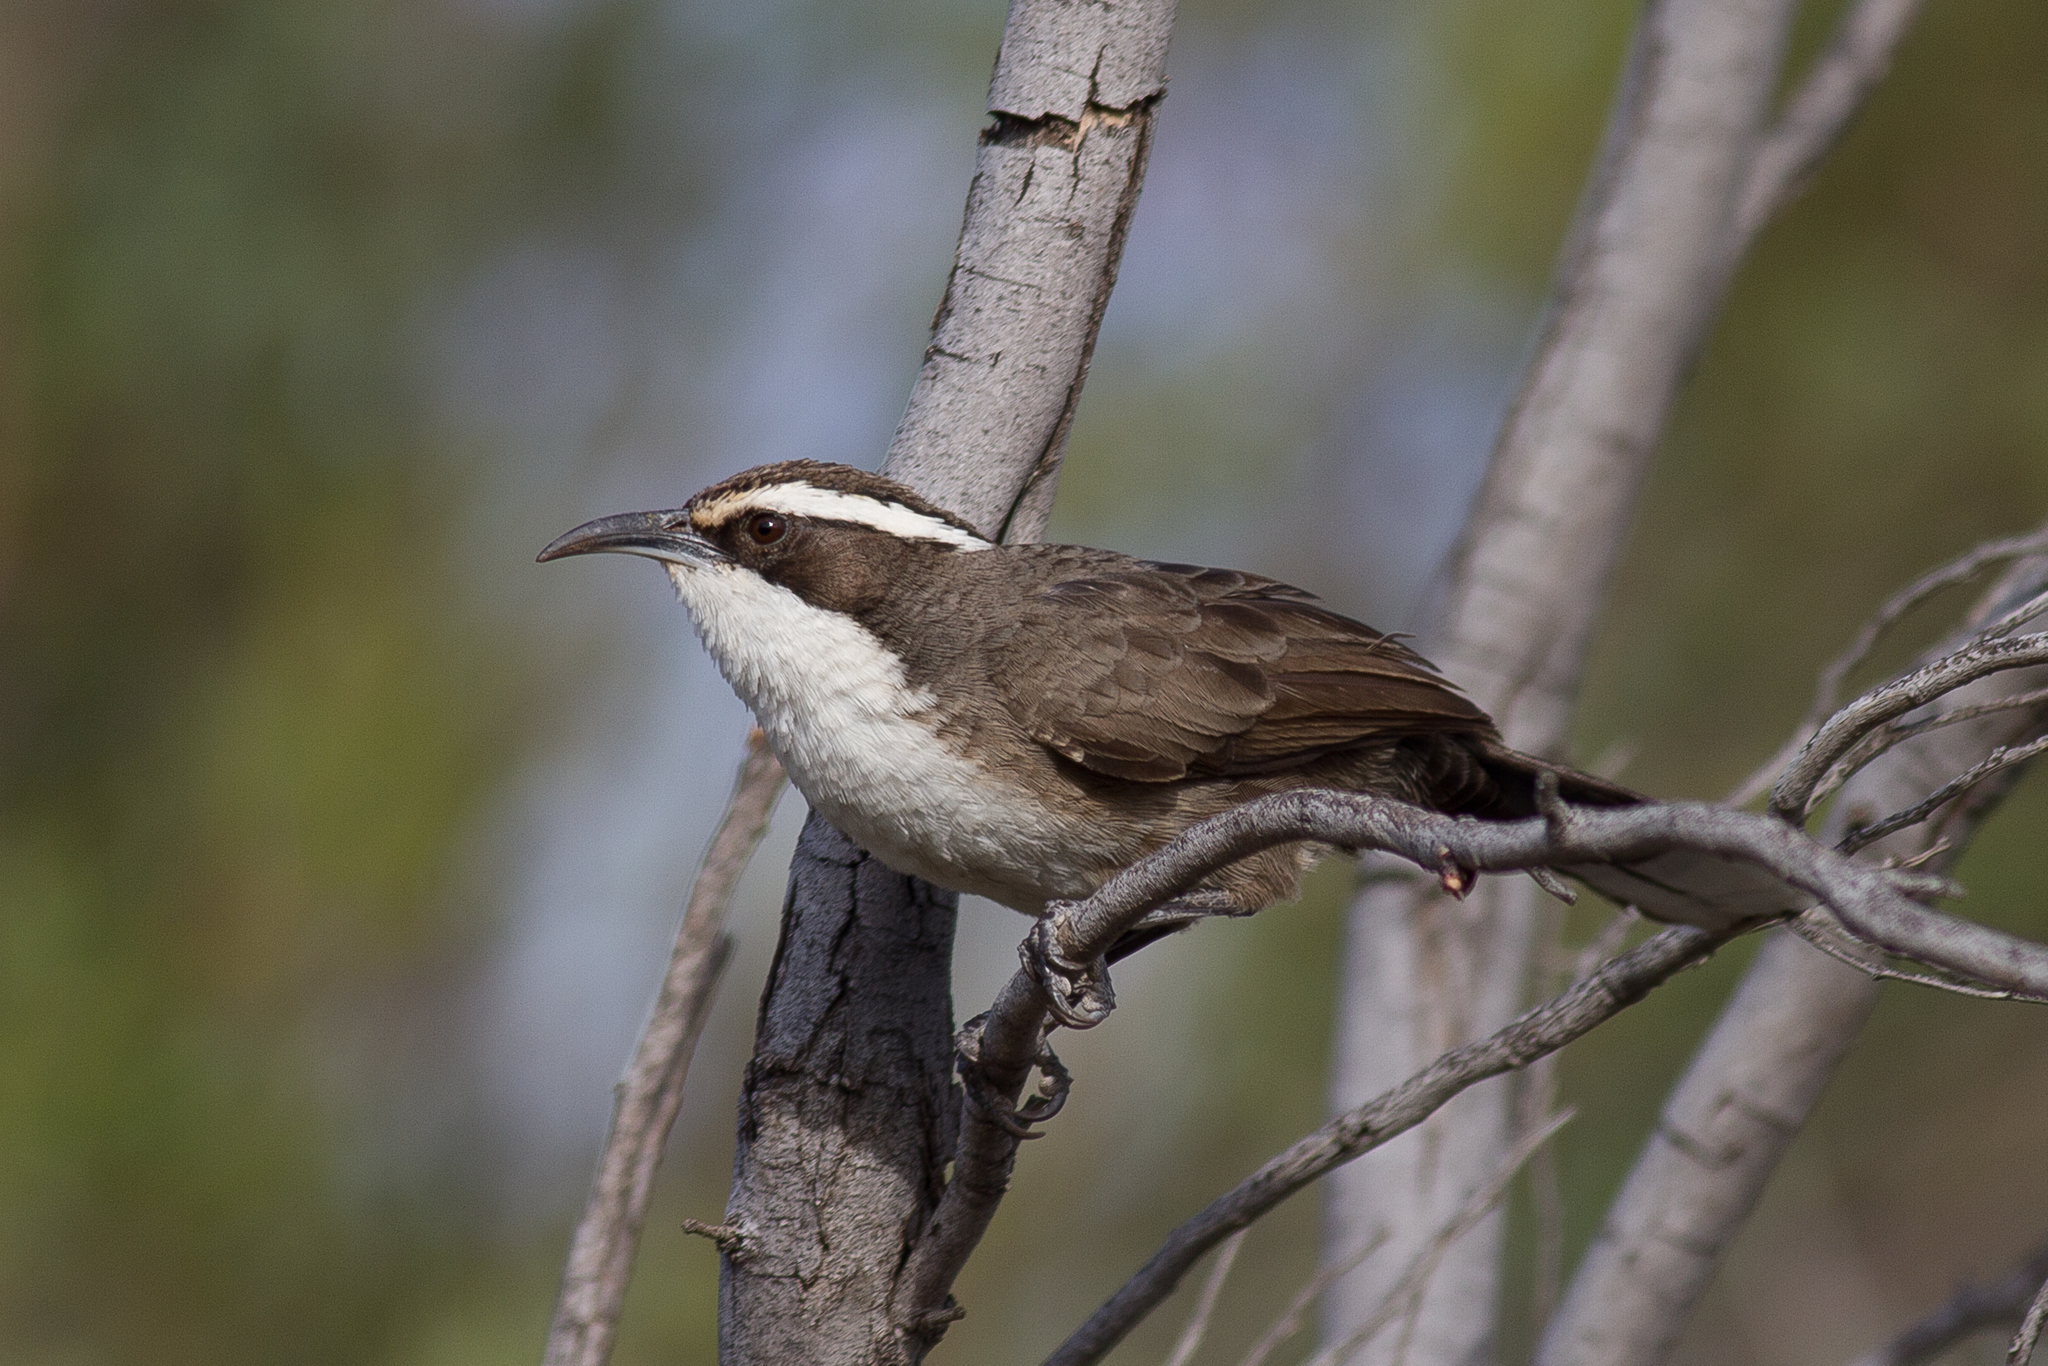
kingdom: Animalia
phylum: Chordata
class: Aves
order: Passeriformes
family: Pomatostomidae
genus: Pomatostomus
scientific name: Pomatostomus superciliosus
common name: White-browed babbler
